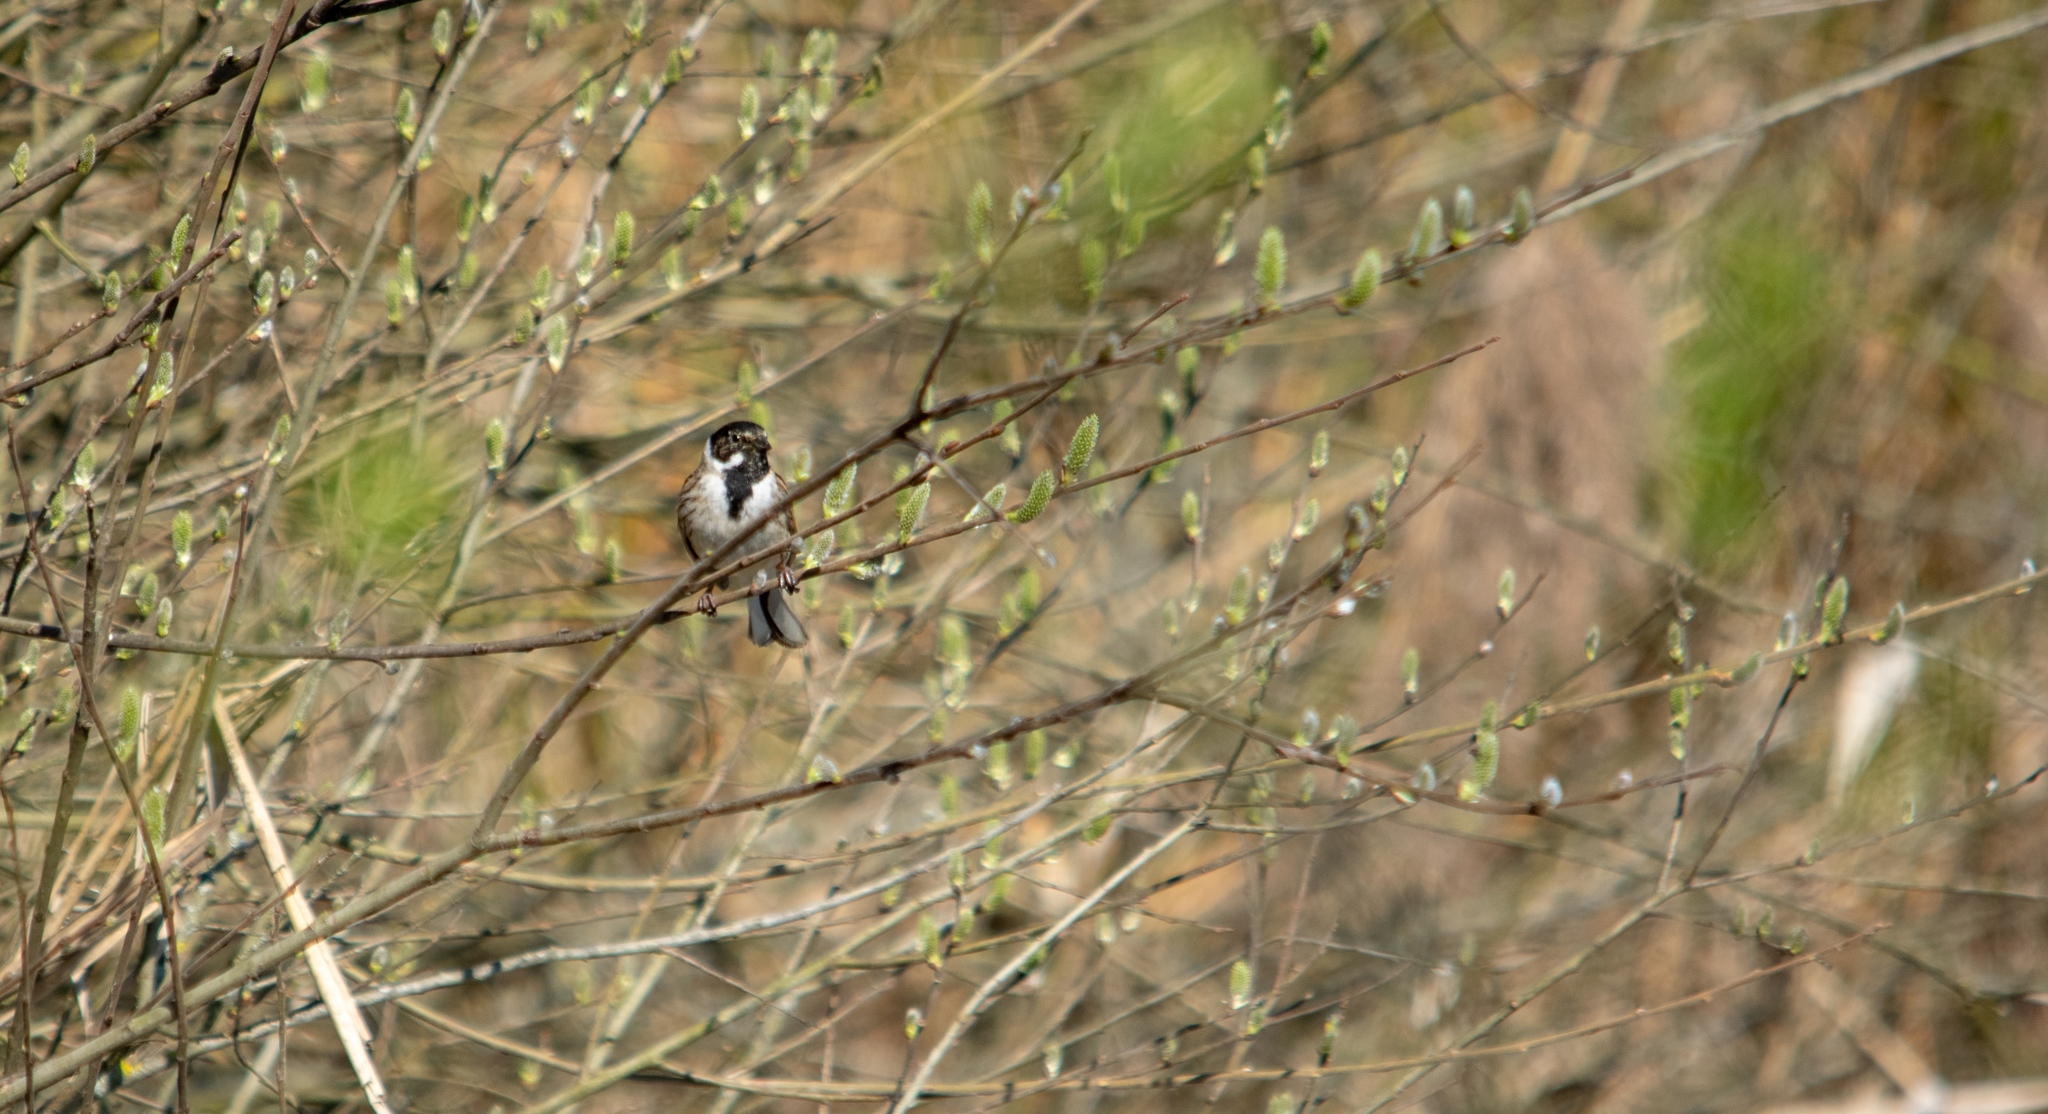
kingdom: Animalia
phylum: Chordata
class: Aves
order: Passeriformes
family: Emberizidae
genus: Emberiza
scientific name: Emberiza schoeniclus
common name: Reed bunting
